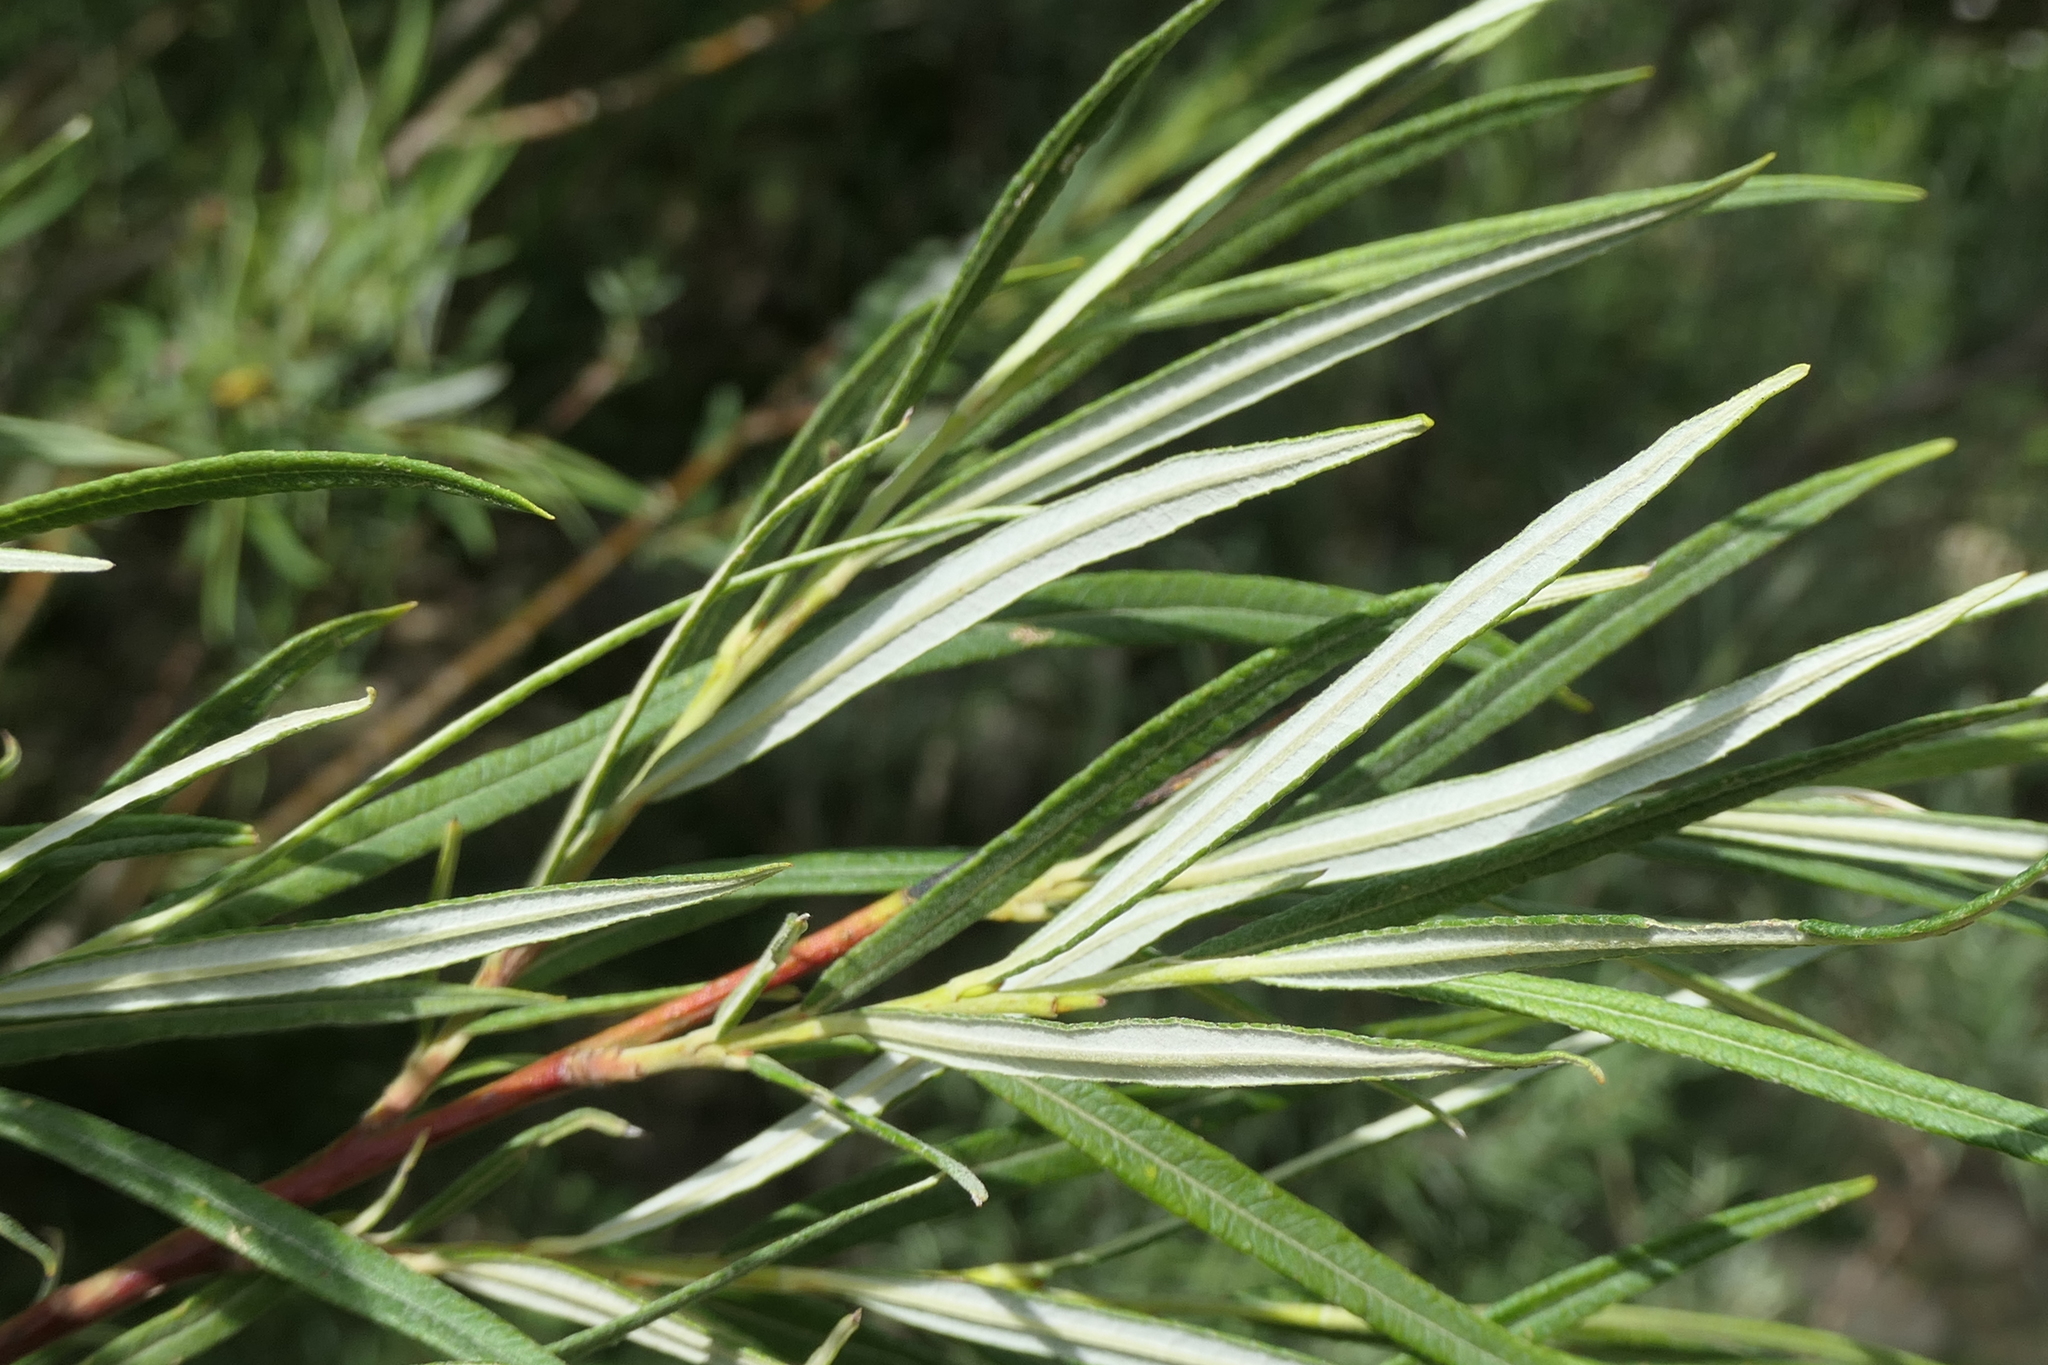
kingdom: Plantae
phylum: Tracheophyta
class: Magnoliopsida
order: Malpighiales
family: Salicaceae
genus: Salix
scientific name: Salix eleagnos
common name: Elaeagnus willow
